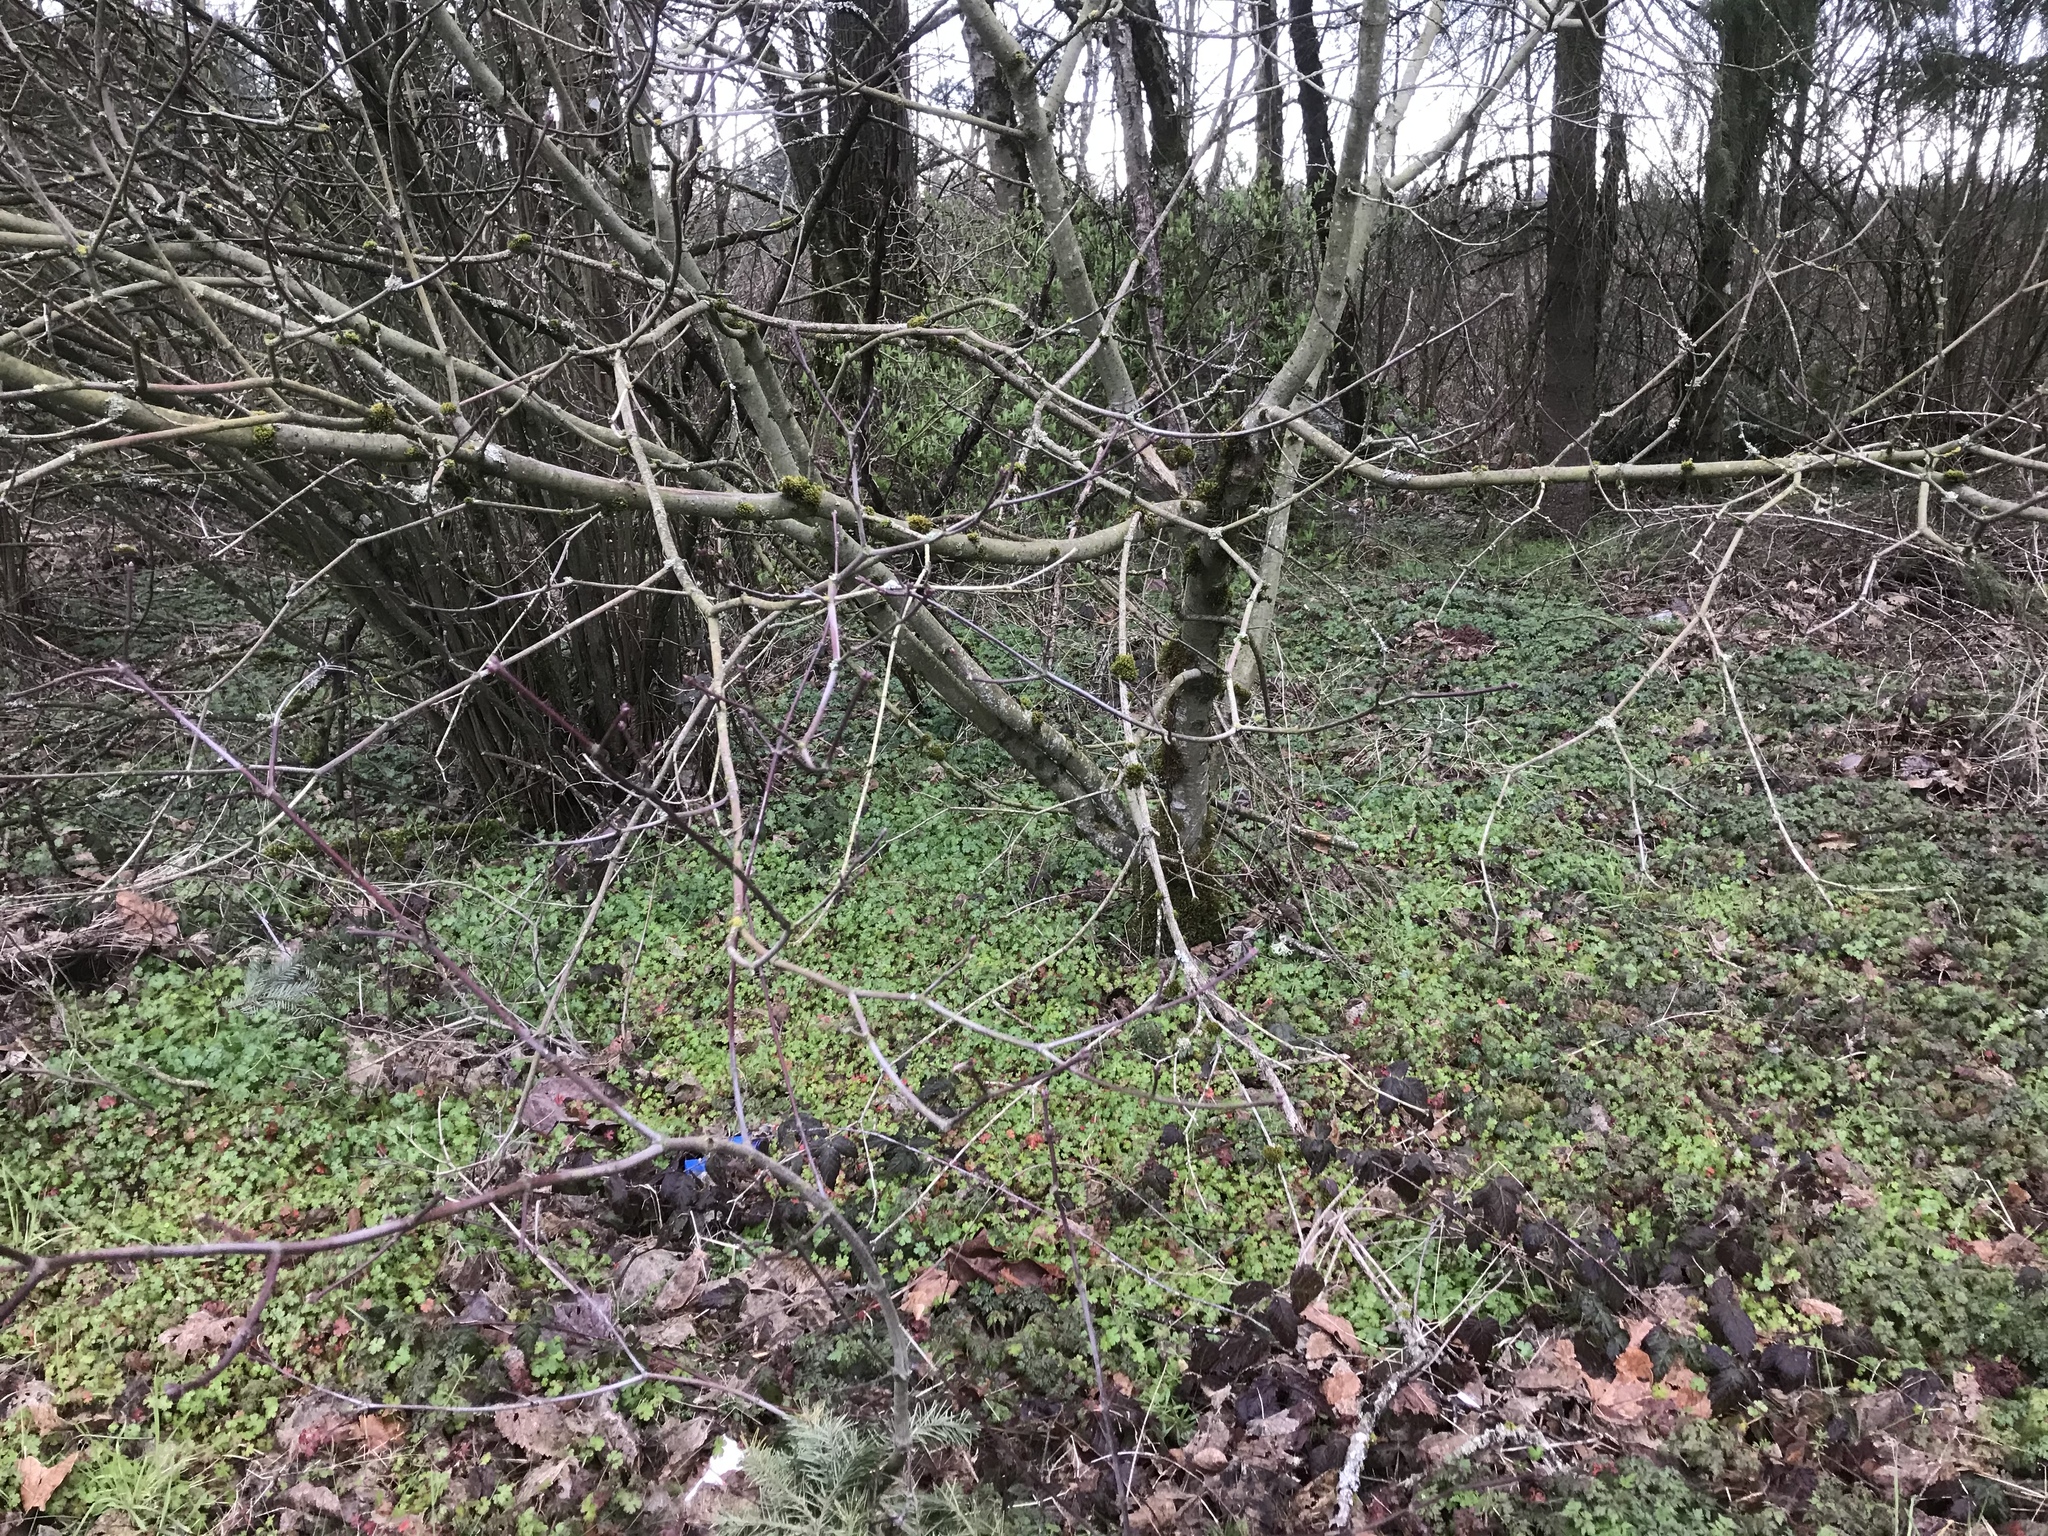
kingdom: Plantae
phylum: Tracheophyta
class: Magnoliopsida
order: Geraniales
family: Geraniaceae
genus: Geranium
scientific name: Geranium lucidum
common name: Shining crane's-bill
